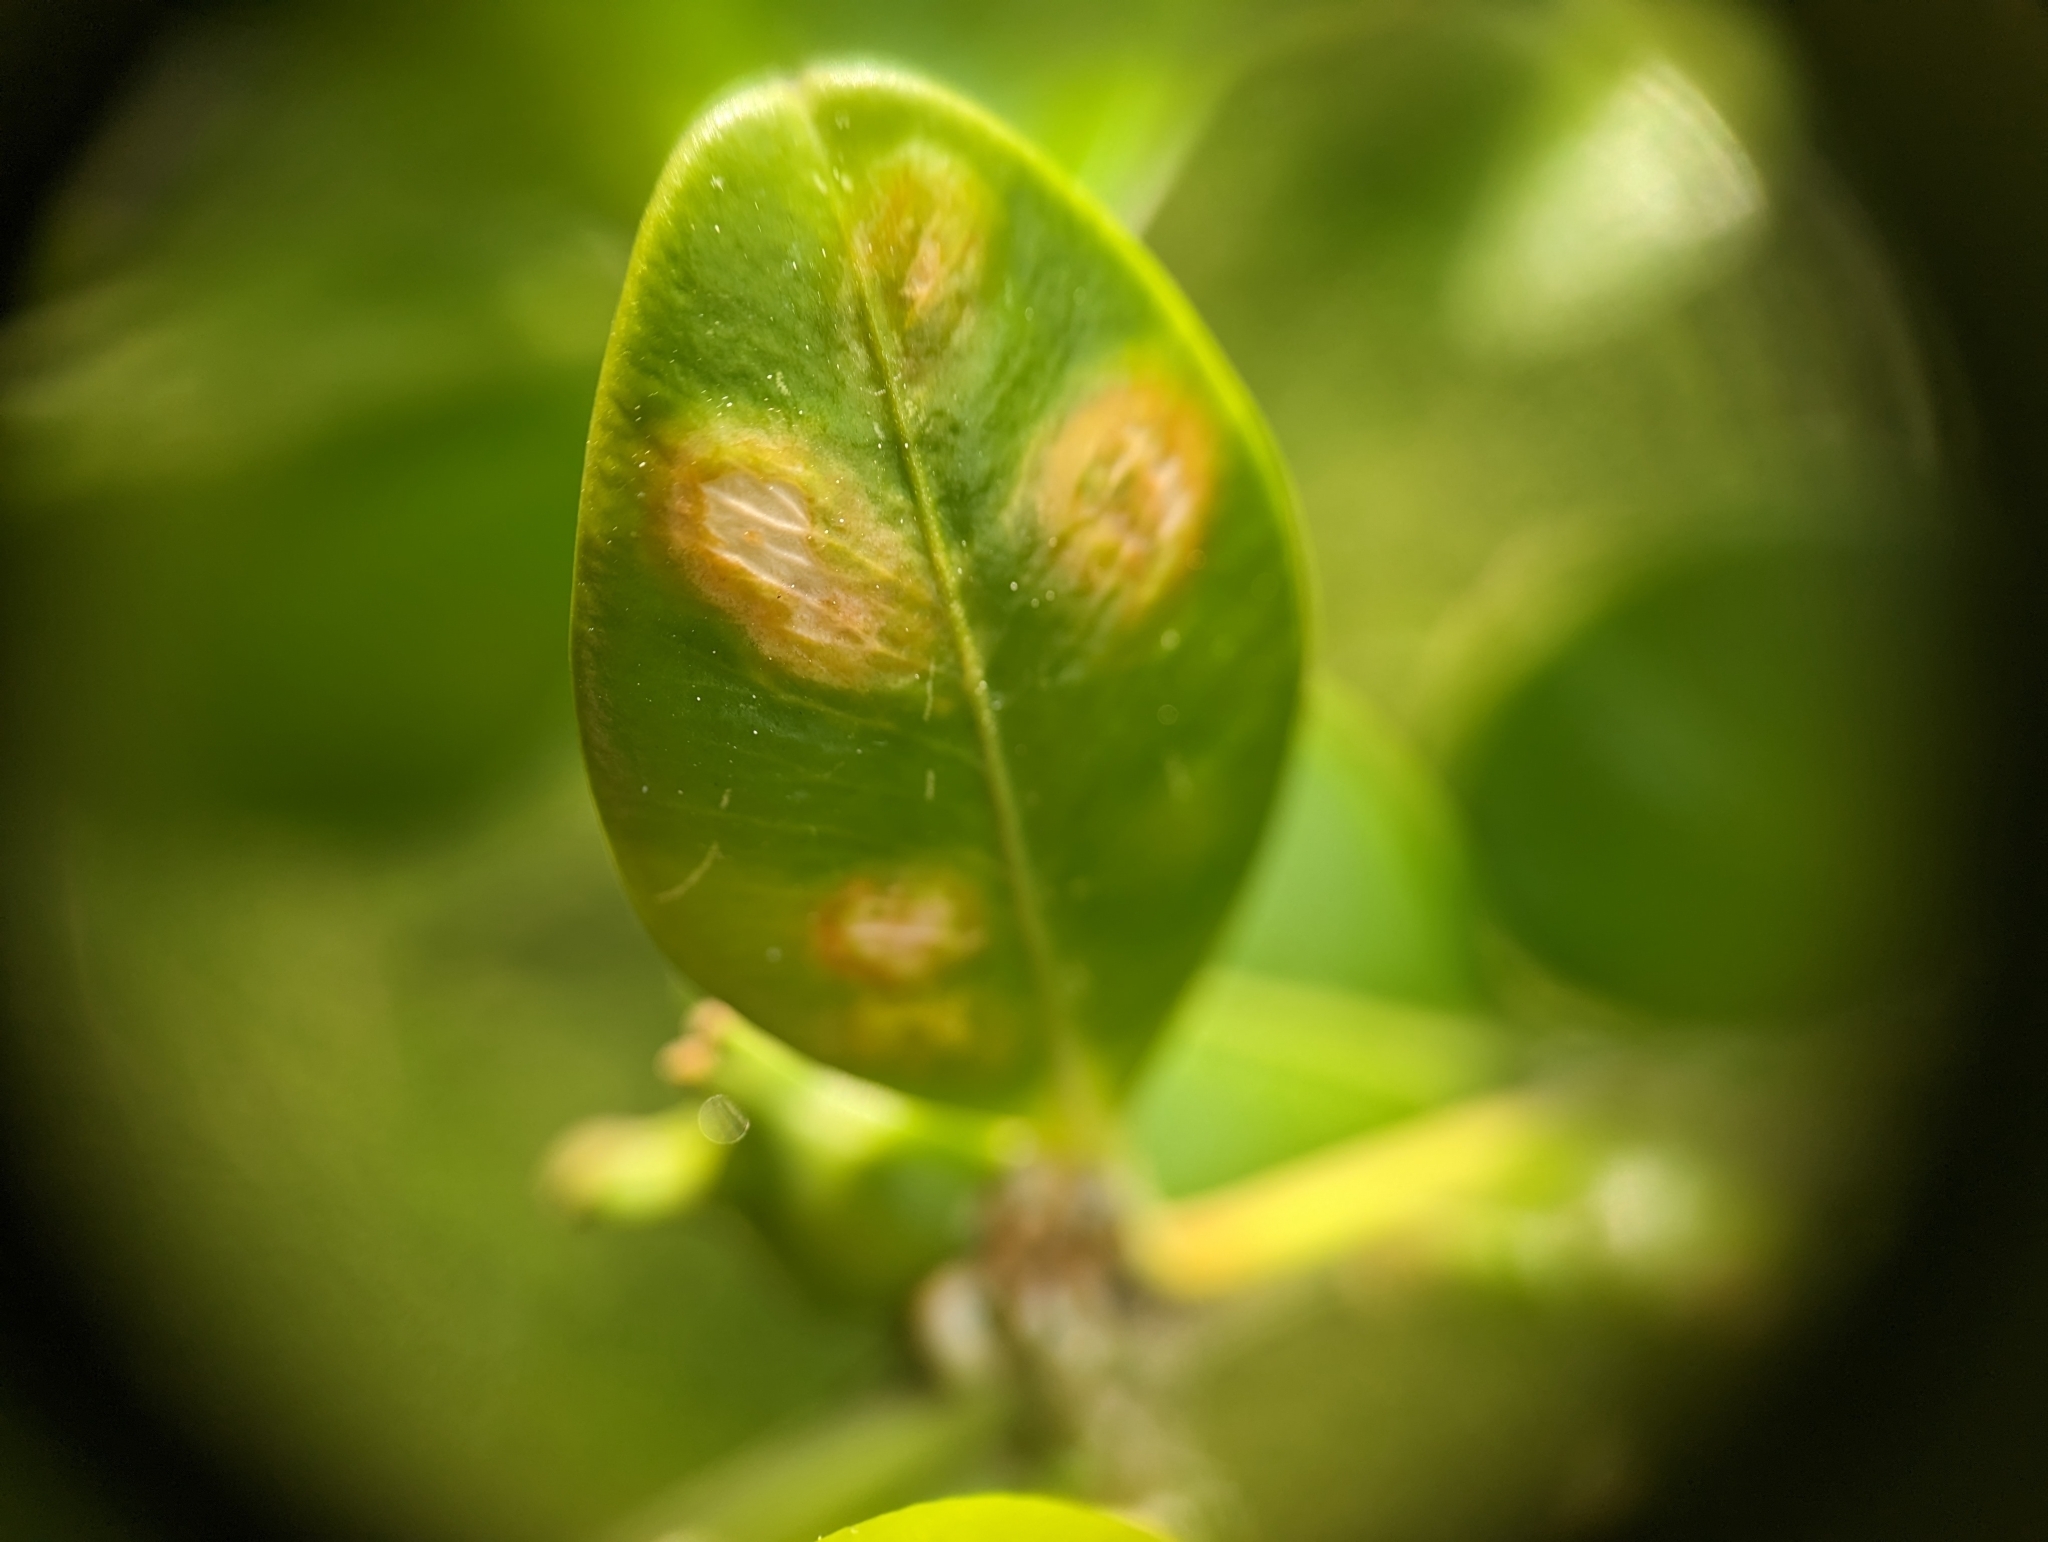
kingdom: Animalia
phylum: Arthropoda
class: Insecta
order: Diptera
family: Cecidomyiidae
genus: Monarthropalpus
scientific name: Monarthropalpus flavus
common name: Boxwood leafminer
